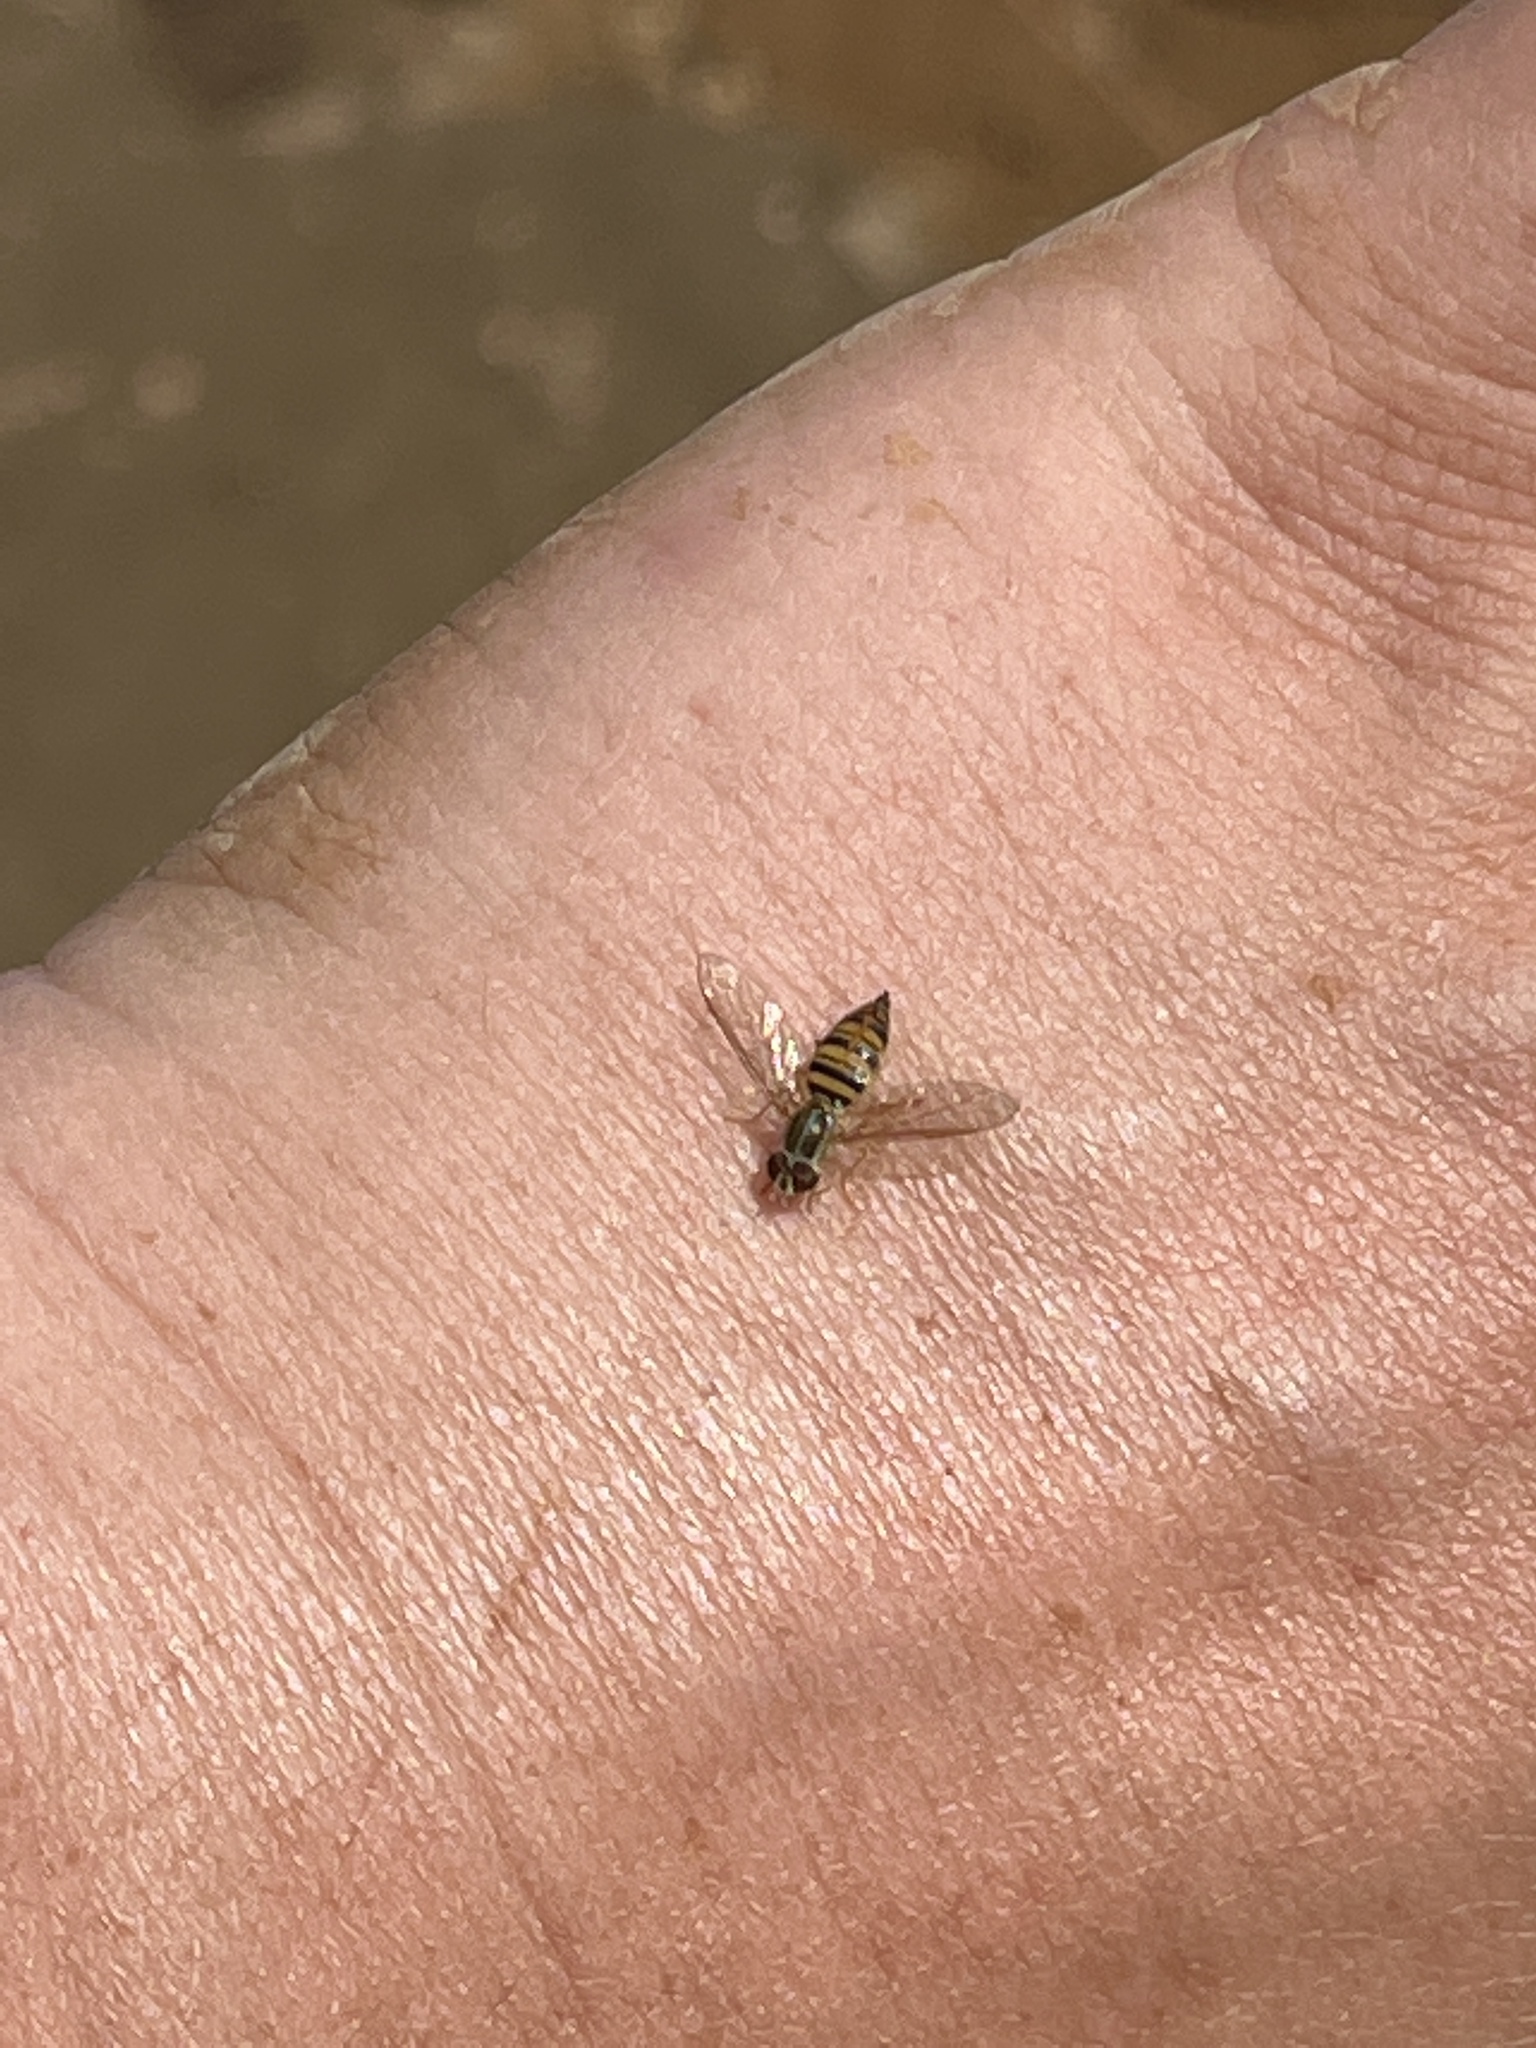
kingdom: Animalia
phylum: Arthropoda
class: Insecta
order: Diptera
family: Syrphidae
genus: Toxomerus
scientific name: Toxomerus politus
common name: Maize calligrapher
